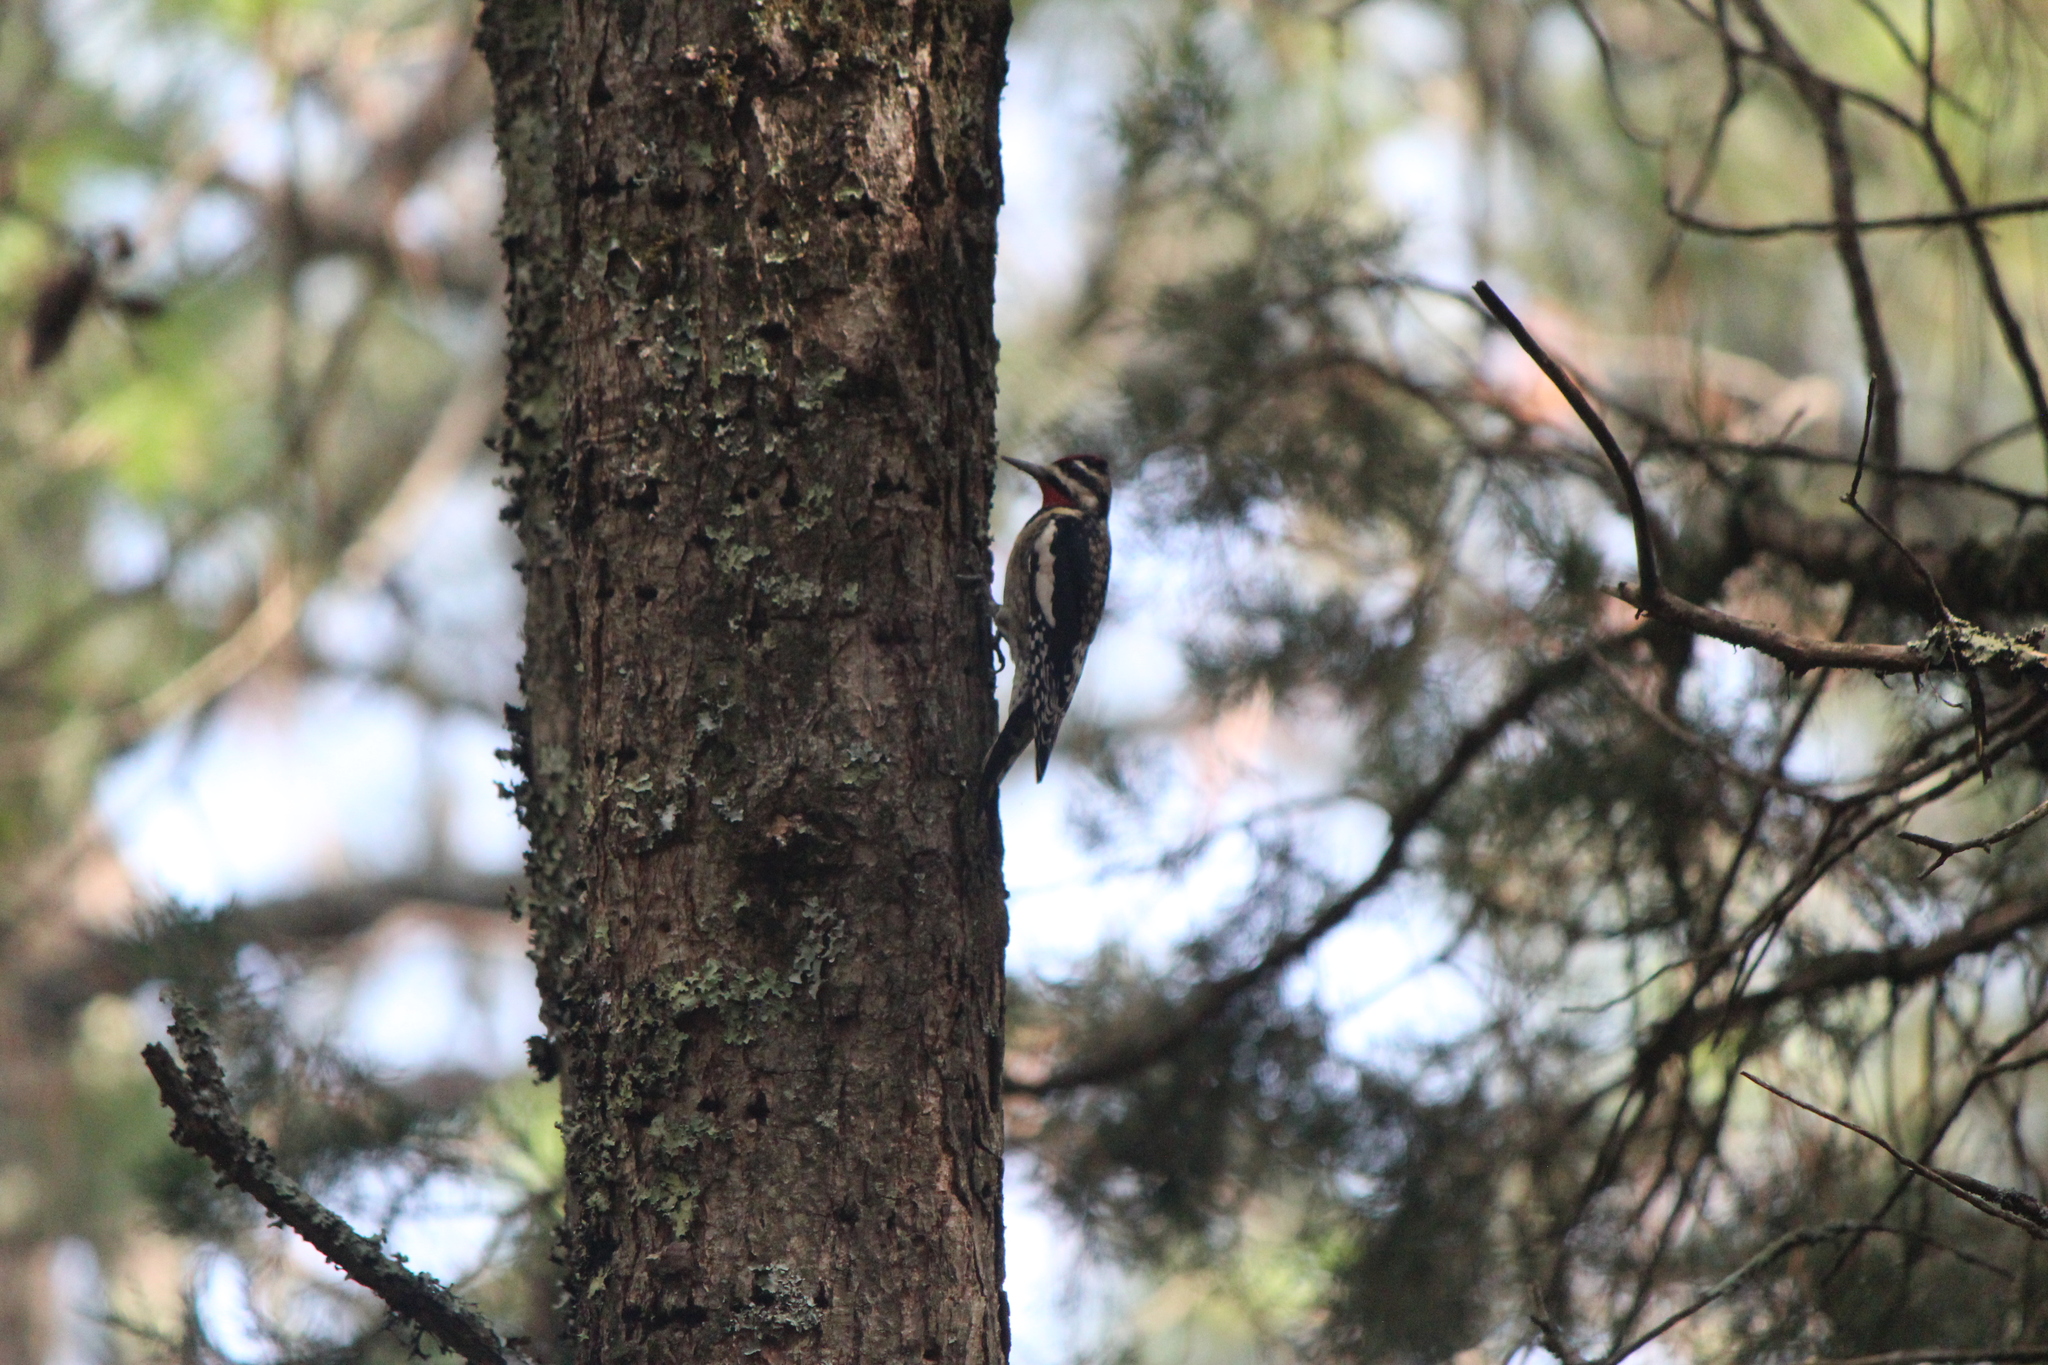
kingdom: Animalia
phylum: Chordata
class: Aves
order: Piciformes
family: Picidae
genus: Sphyrapicus
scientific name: Sphyrapicus varius
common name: Yellow-bellied sapsucker
